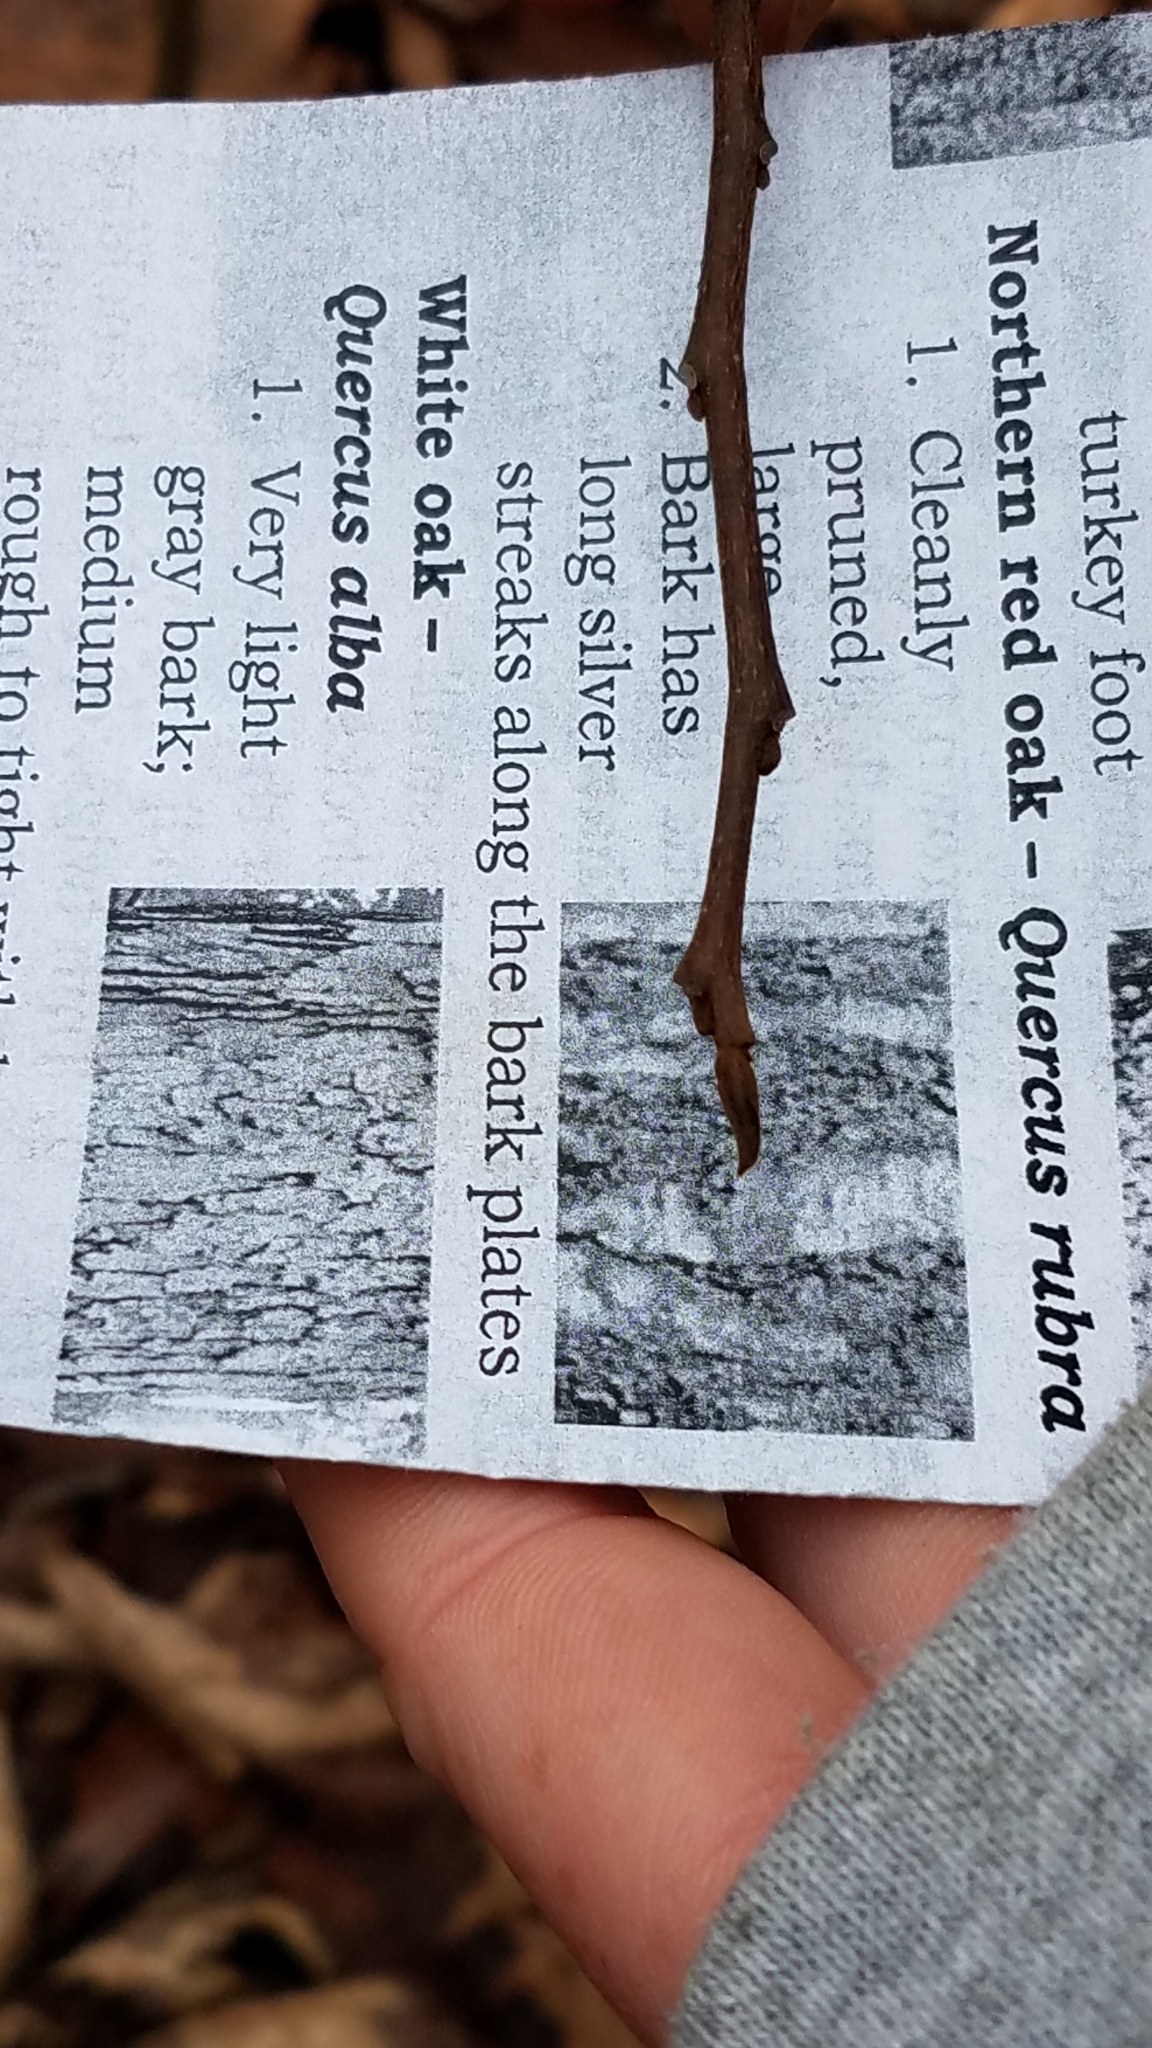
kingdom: Plantae
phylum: Tracheophyta
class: Magnoliopsida
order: Magnoliales
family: Annonaceae
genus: Asimina
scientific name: Asimina triloba
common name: Dog-banana
